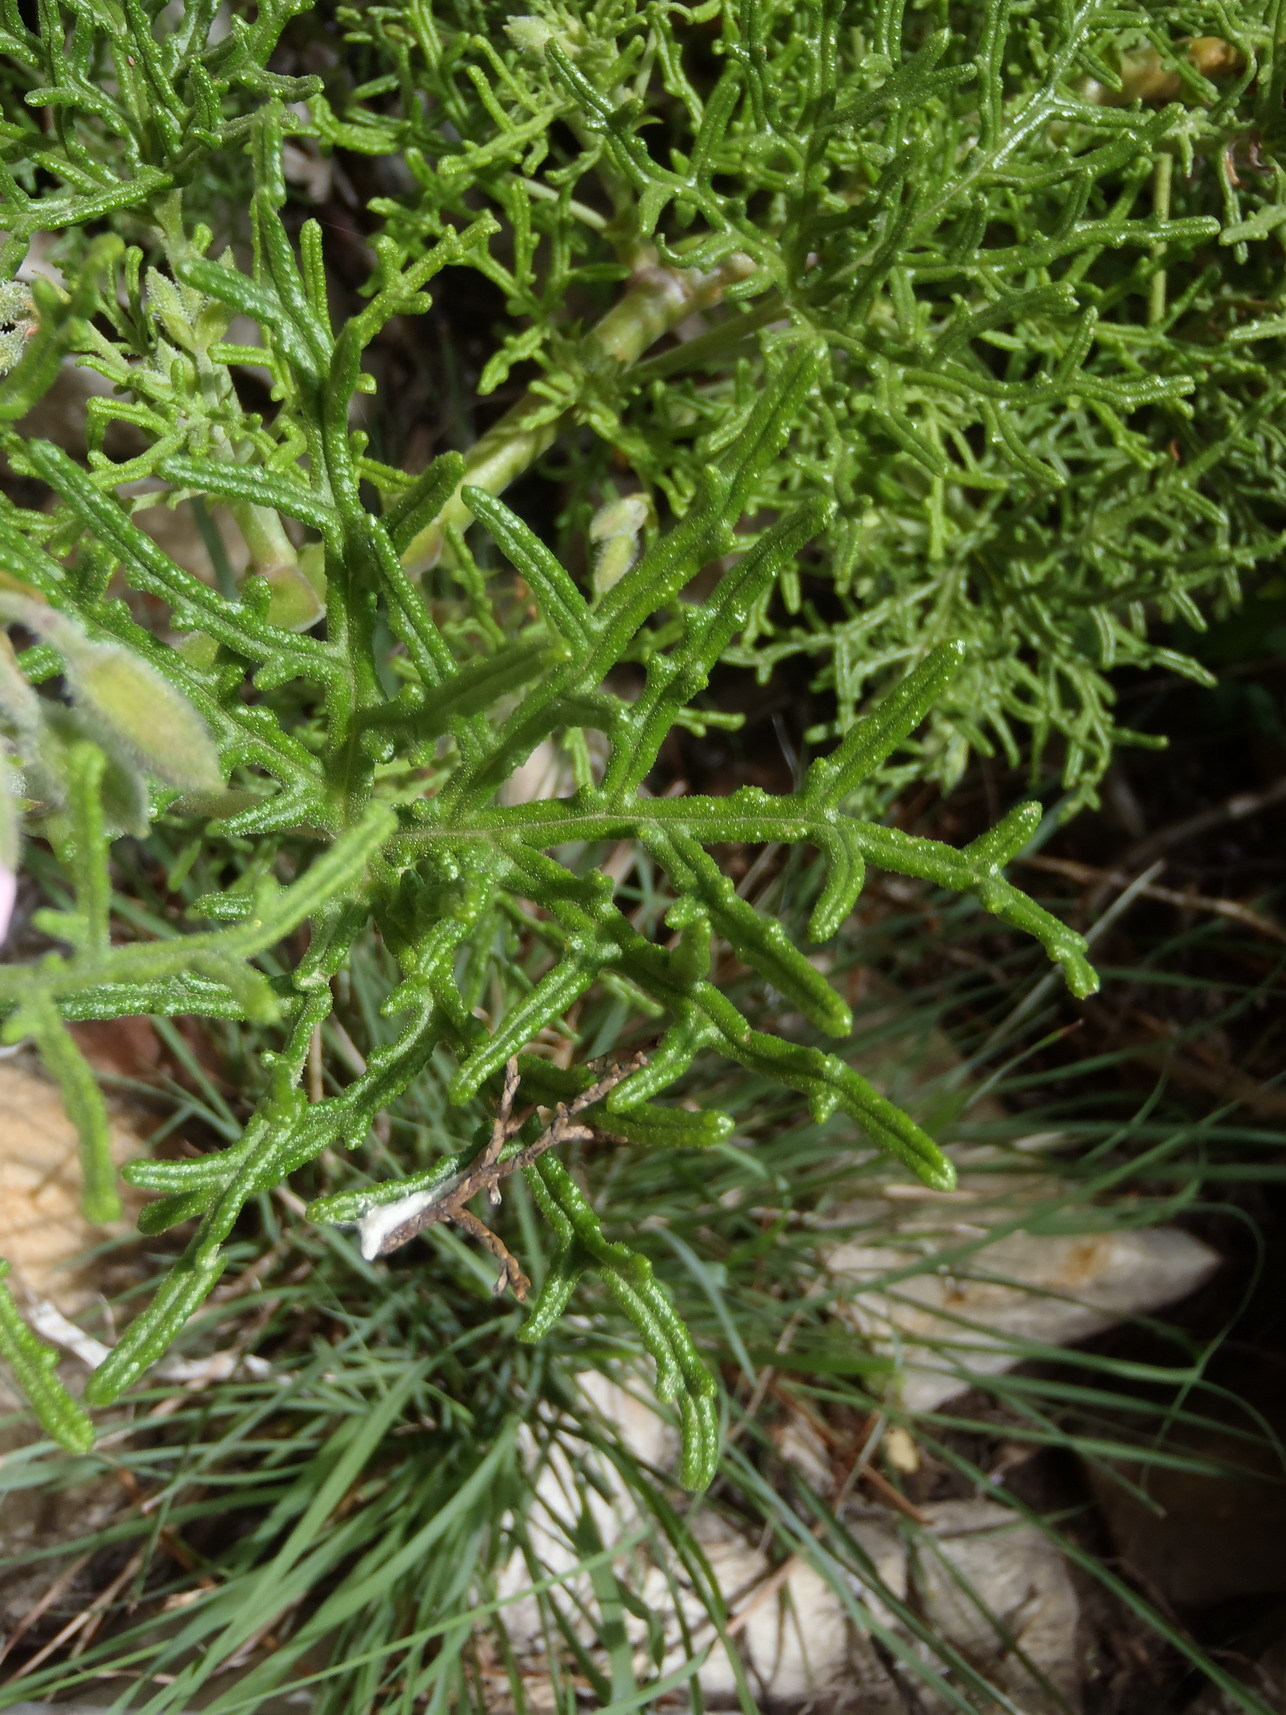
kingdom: Plantae
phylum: Tracheophyta
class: Magnoliopsida
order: Geraniales
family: Geraniaceae
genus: Pelargonium
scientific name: Pelargonium radens
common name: Rasp-leaf pelargonium
